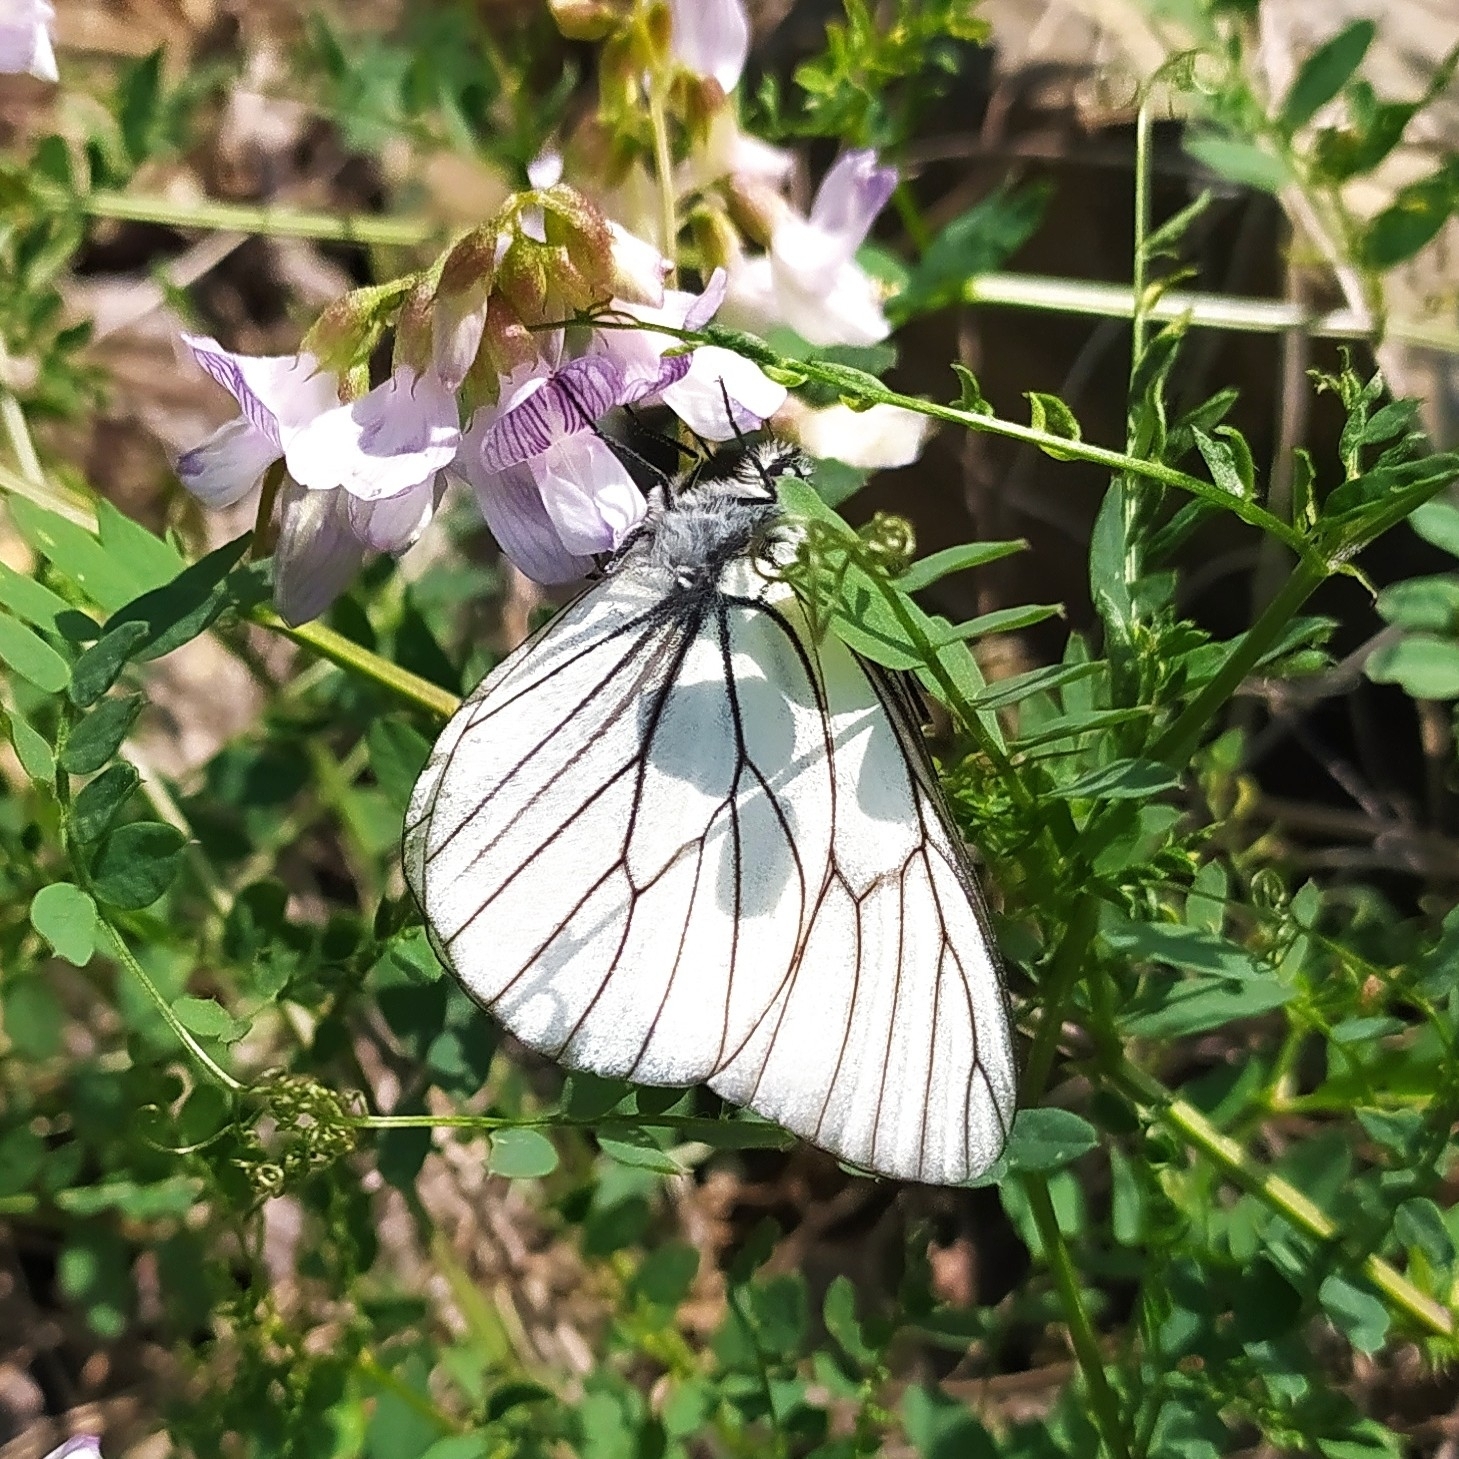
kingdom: Animalia
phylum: Arthropoda
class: Insecta
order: Lepidoptera
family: Pieridae
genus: Aporia
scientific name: Aporia crataegi
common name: Black-veined white
